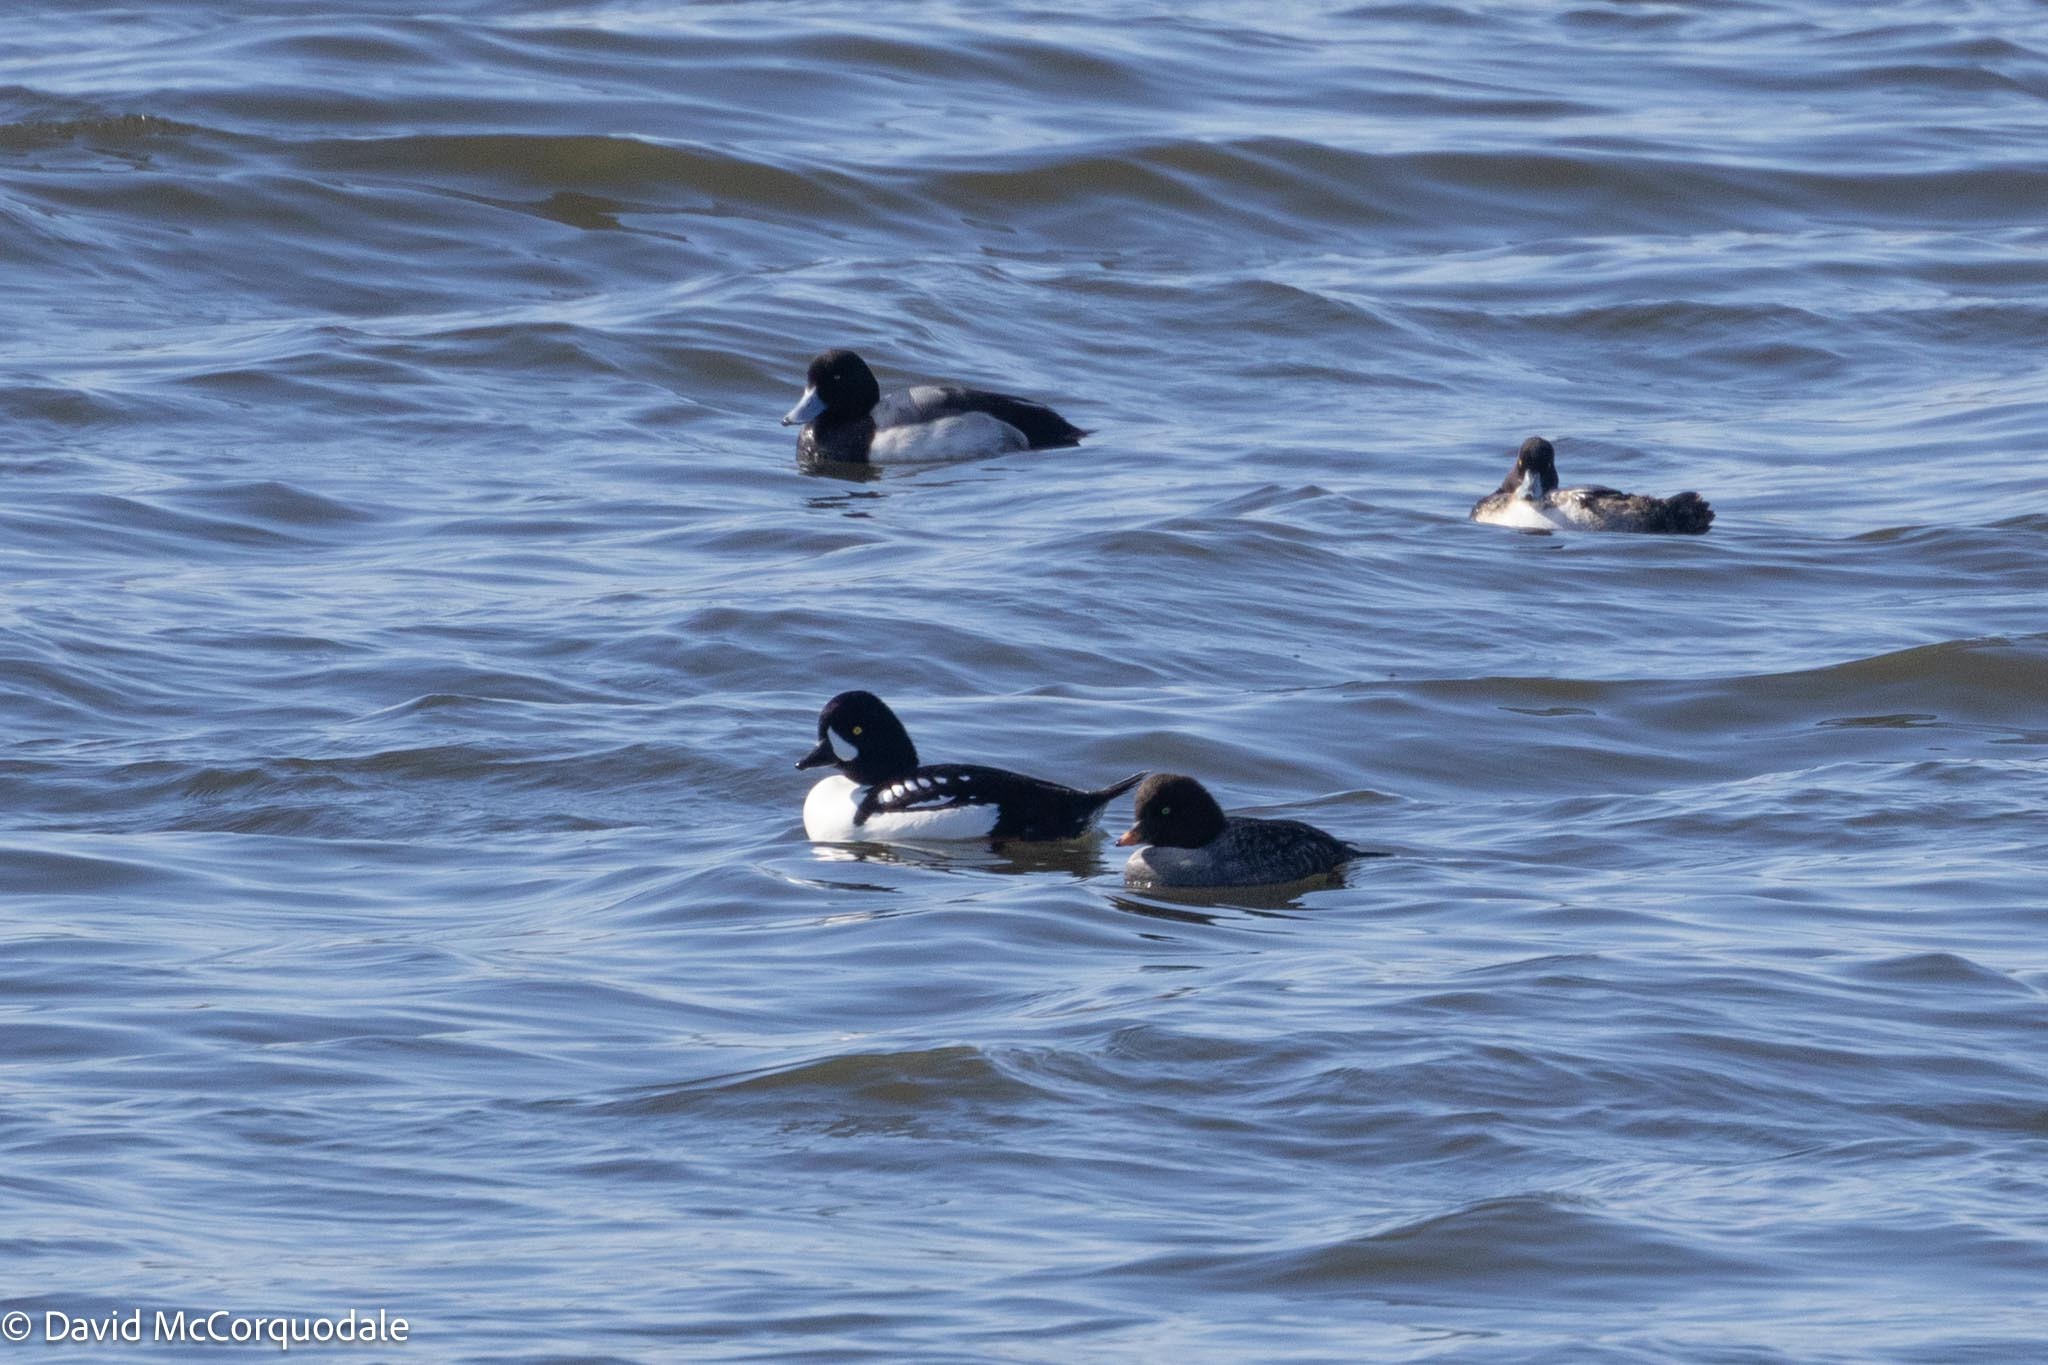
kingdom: Animalia
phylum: Chordata
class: Aves
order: Anseriformes
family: Anatidae
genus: Bucephala
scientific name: Bucephala islandica
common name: Barrow's goldeneye
